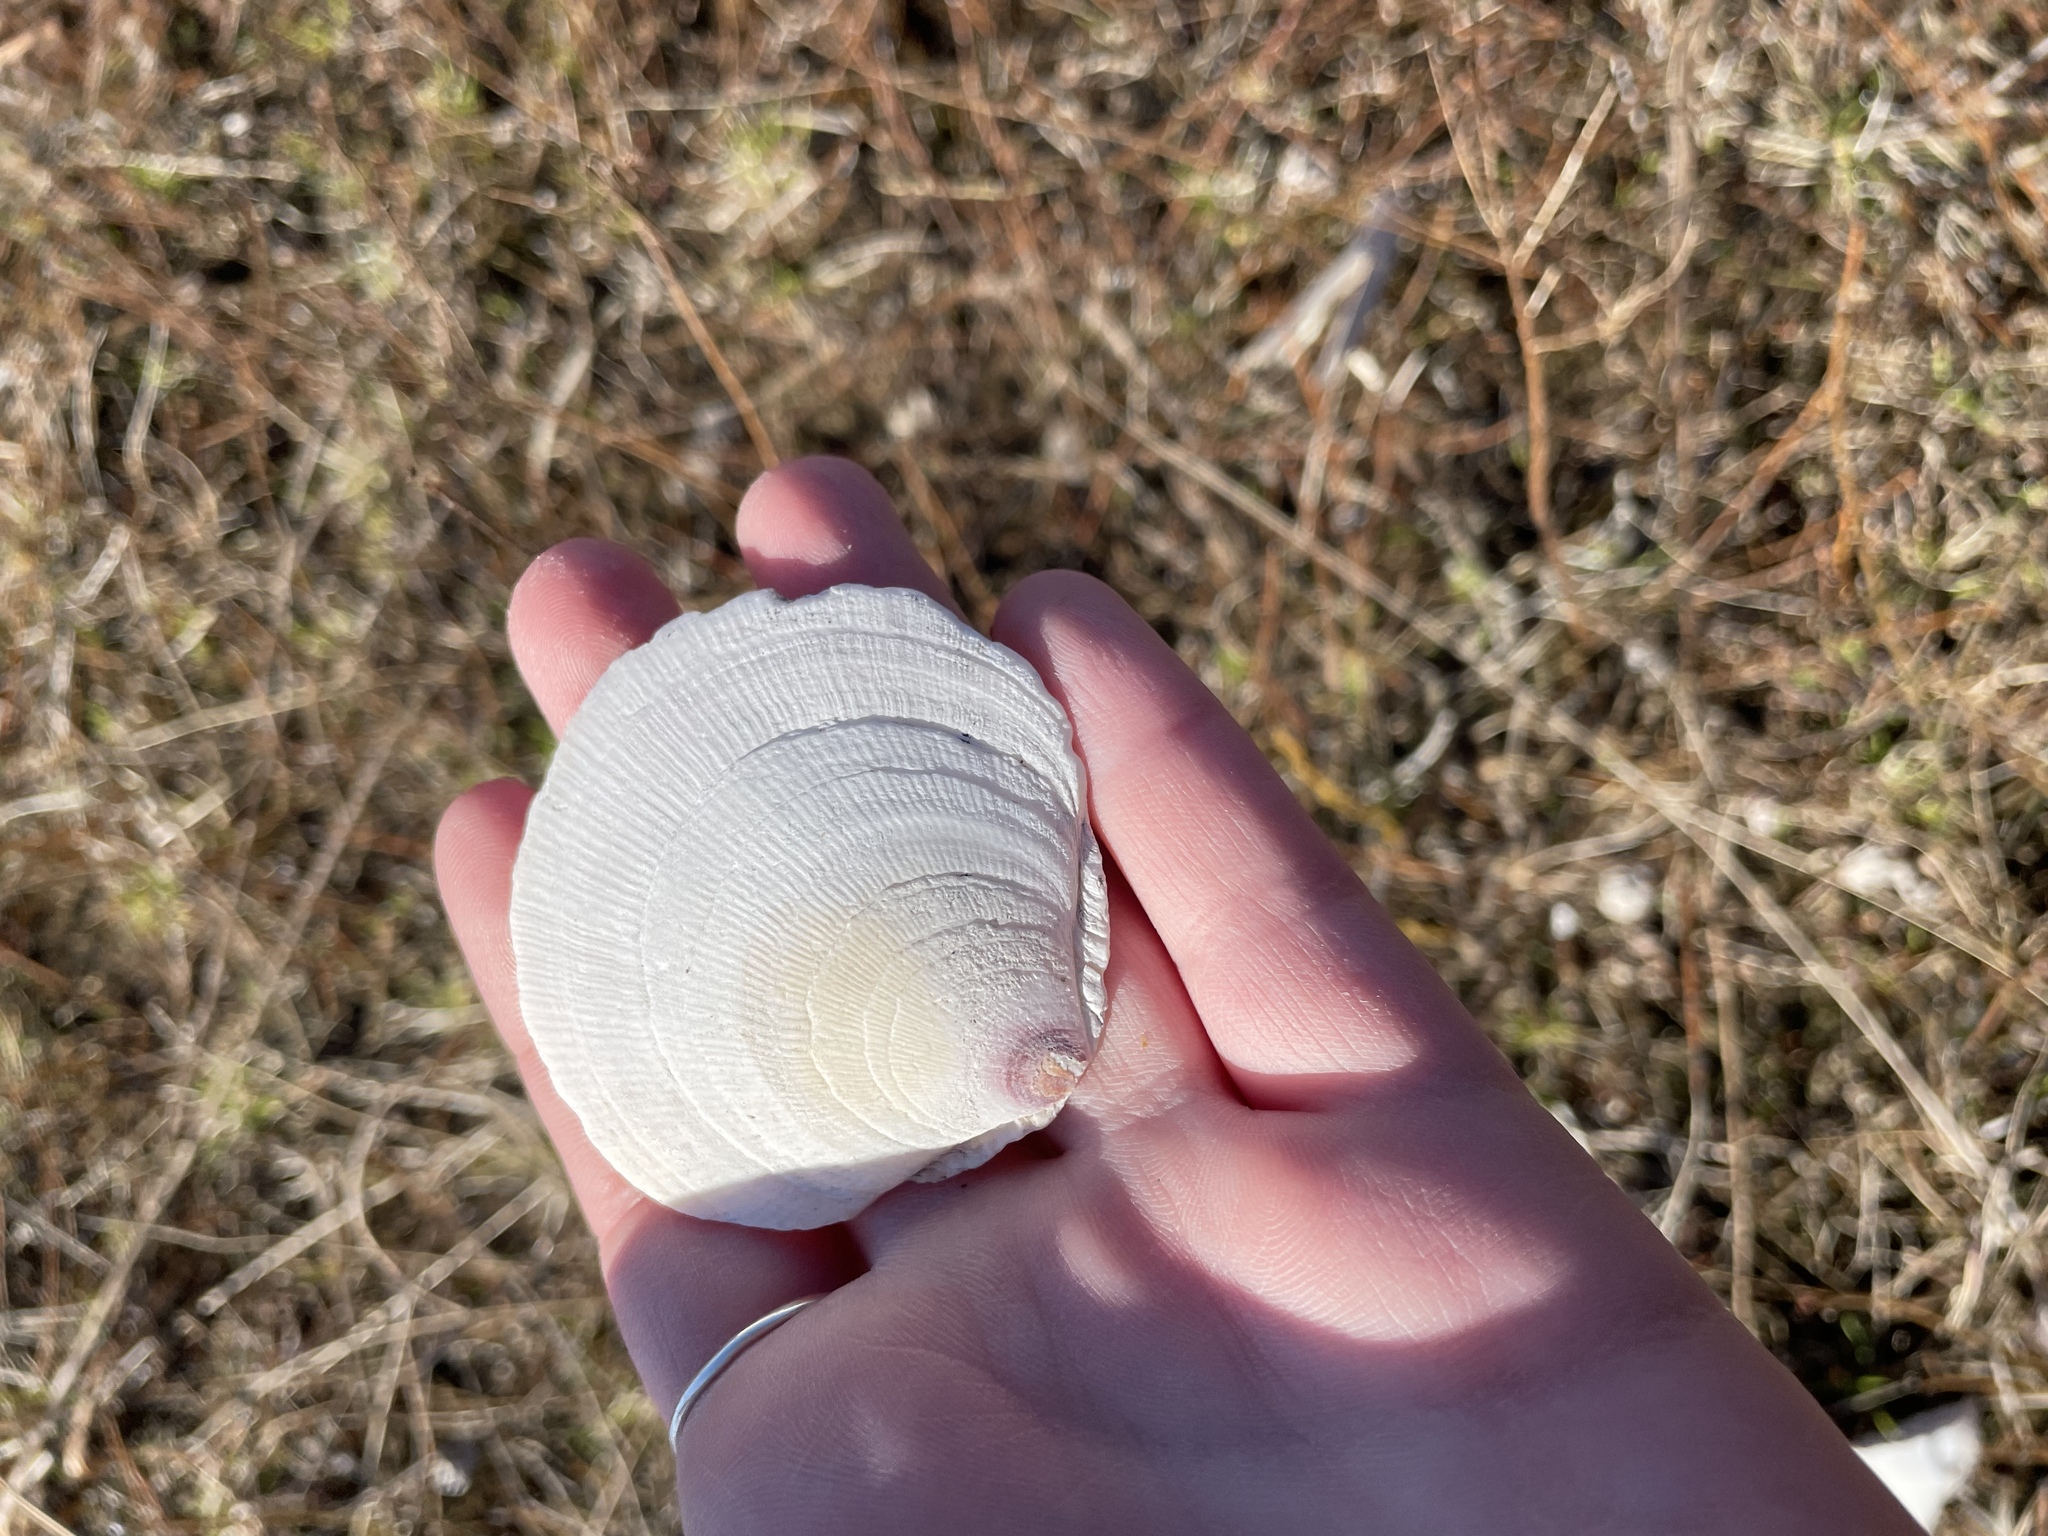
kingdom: Animalia
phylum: Mollusca
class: Bivalvia
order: Pectinida
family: Pectinidae
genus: Placopecten
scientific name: Placopecten magellanicus
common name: American sea scallop
